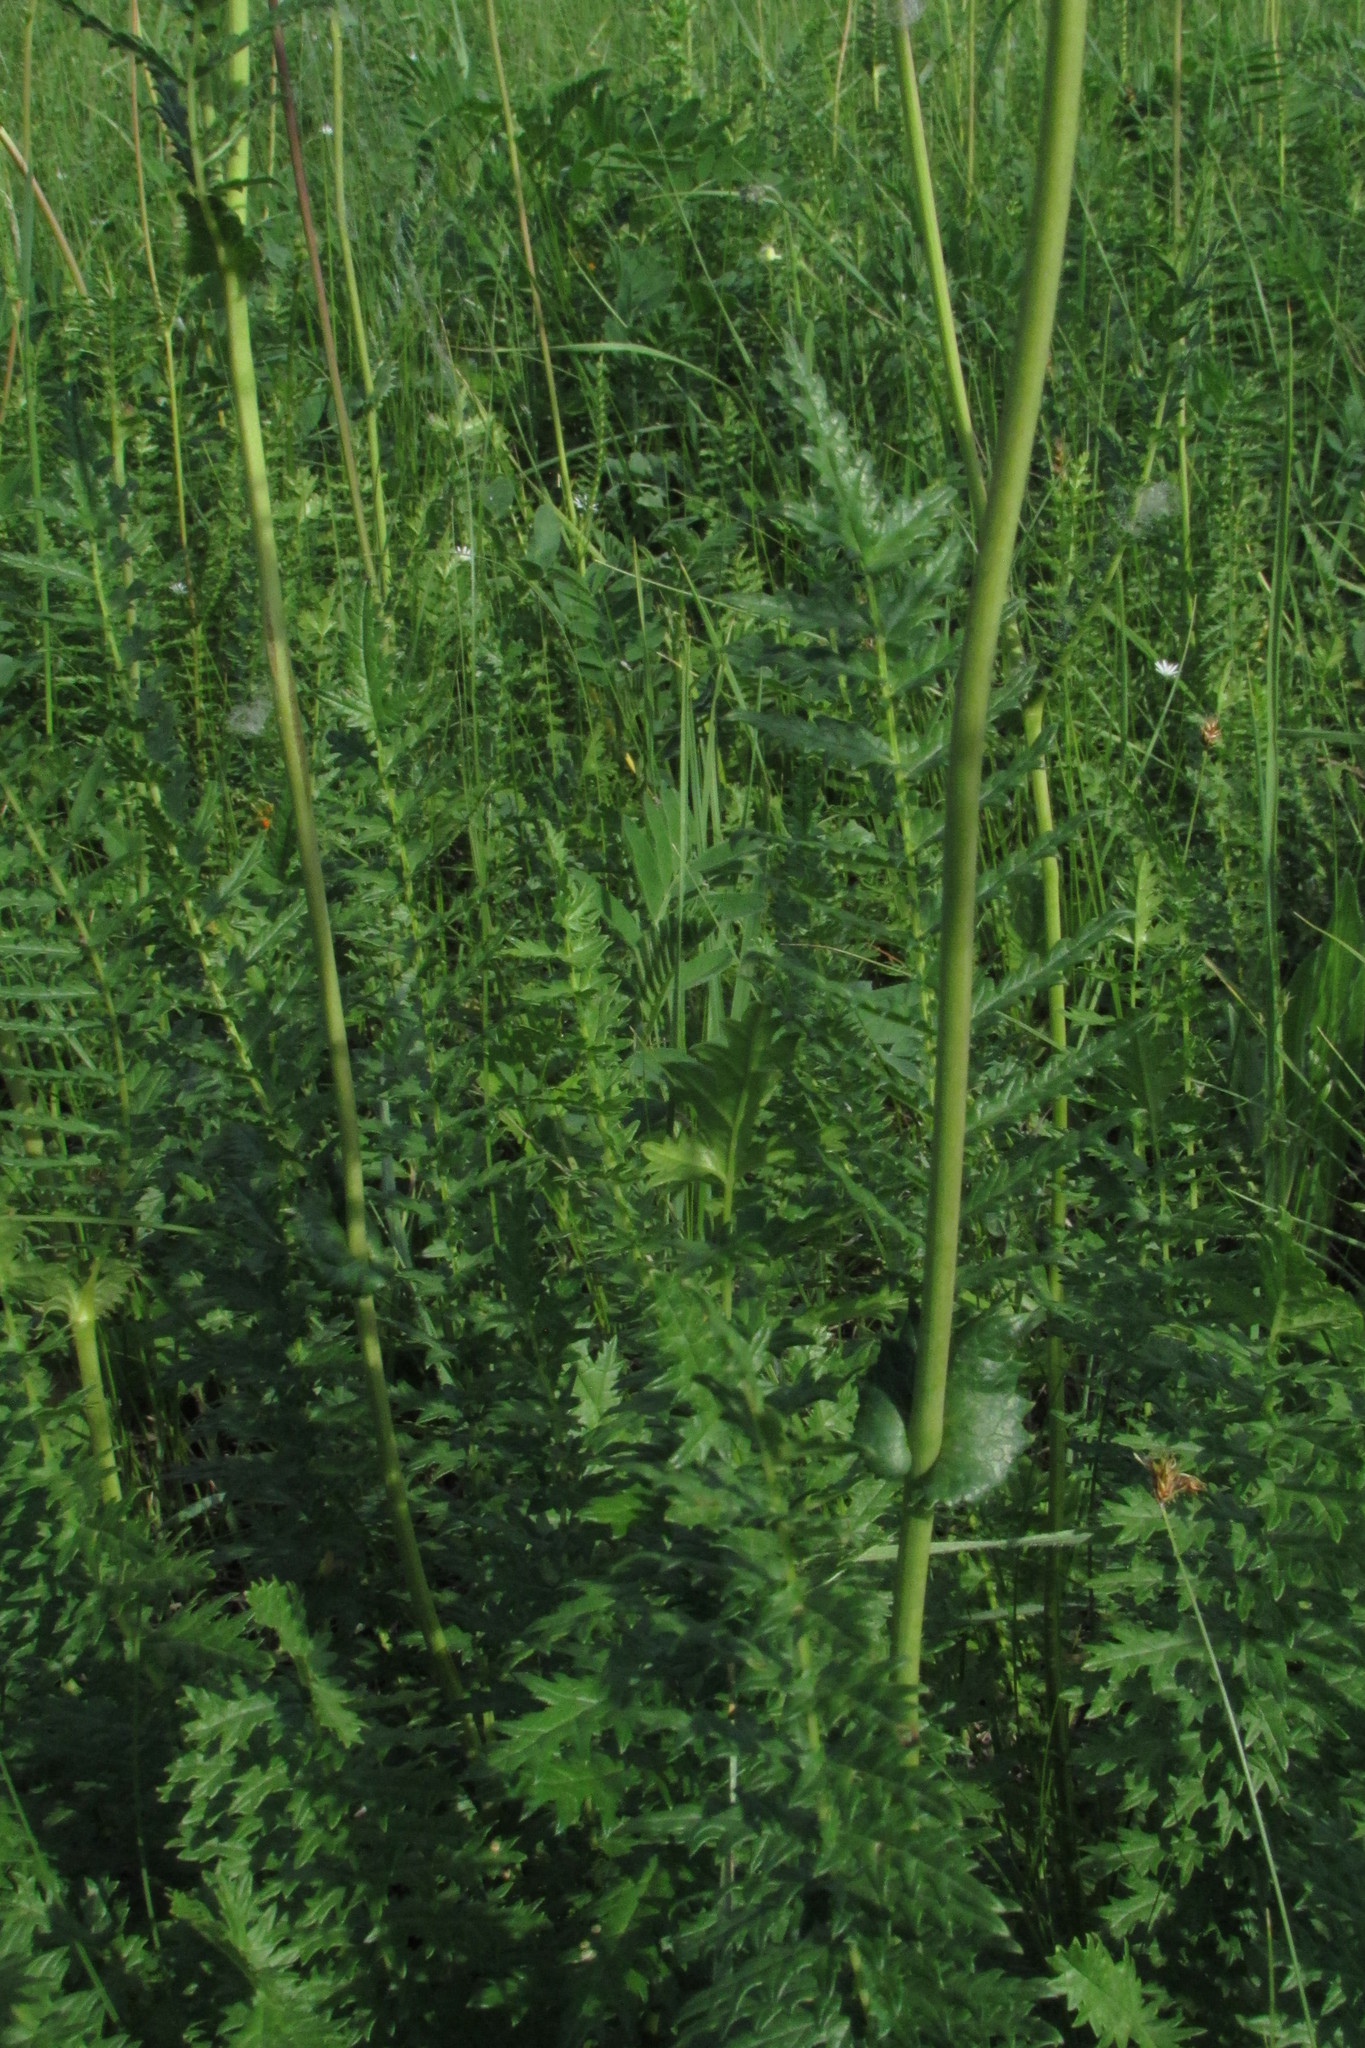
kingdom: Plantae
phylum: Tracheophyta
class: Magnoliopsida
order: Rosales
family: Rosaceae
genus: Filipendula
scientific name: Filipendula vulgaris
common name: Dropwort
